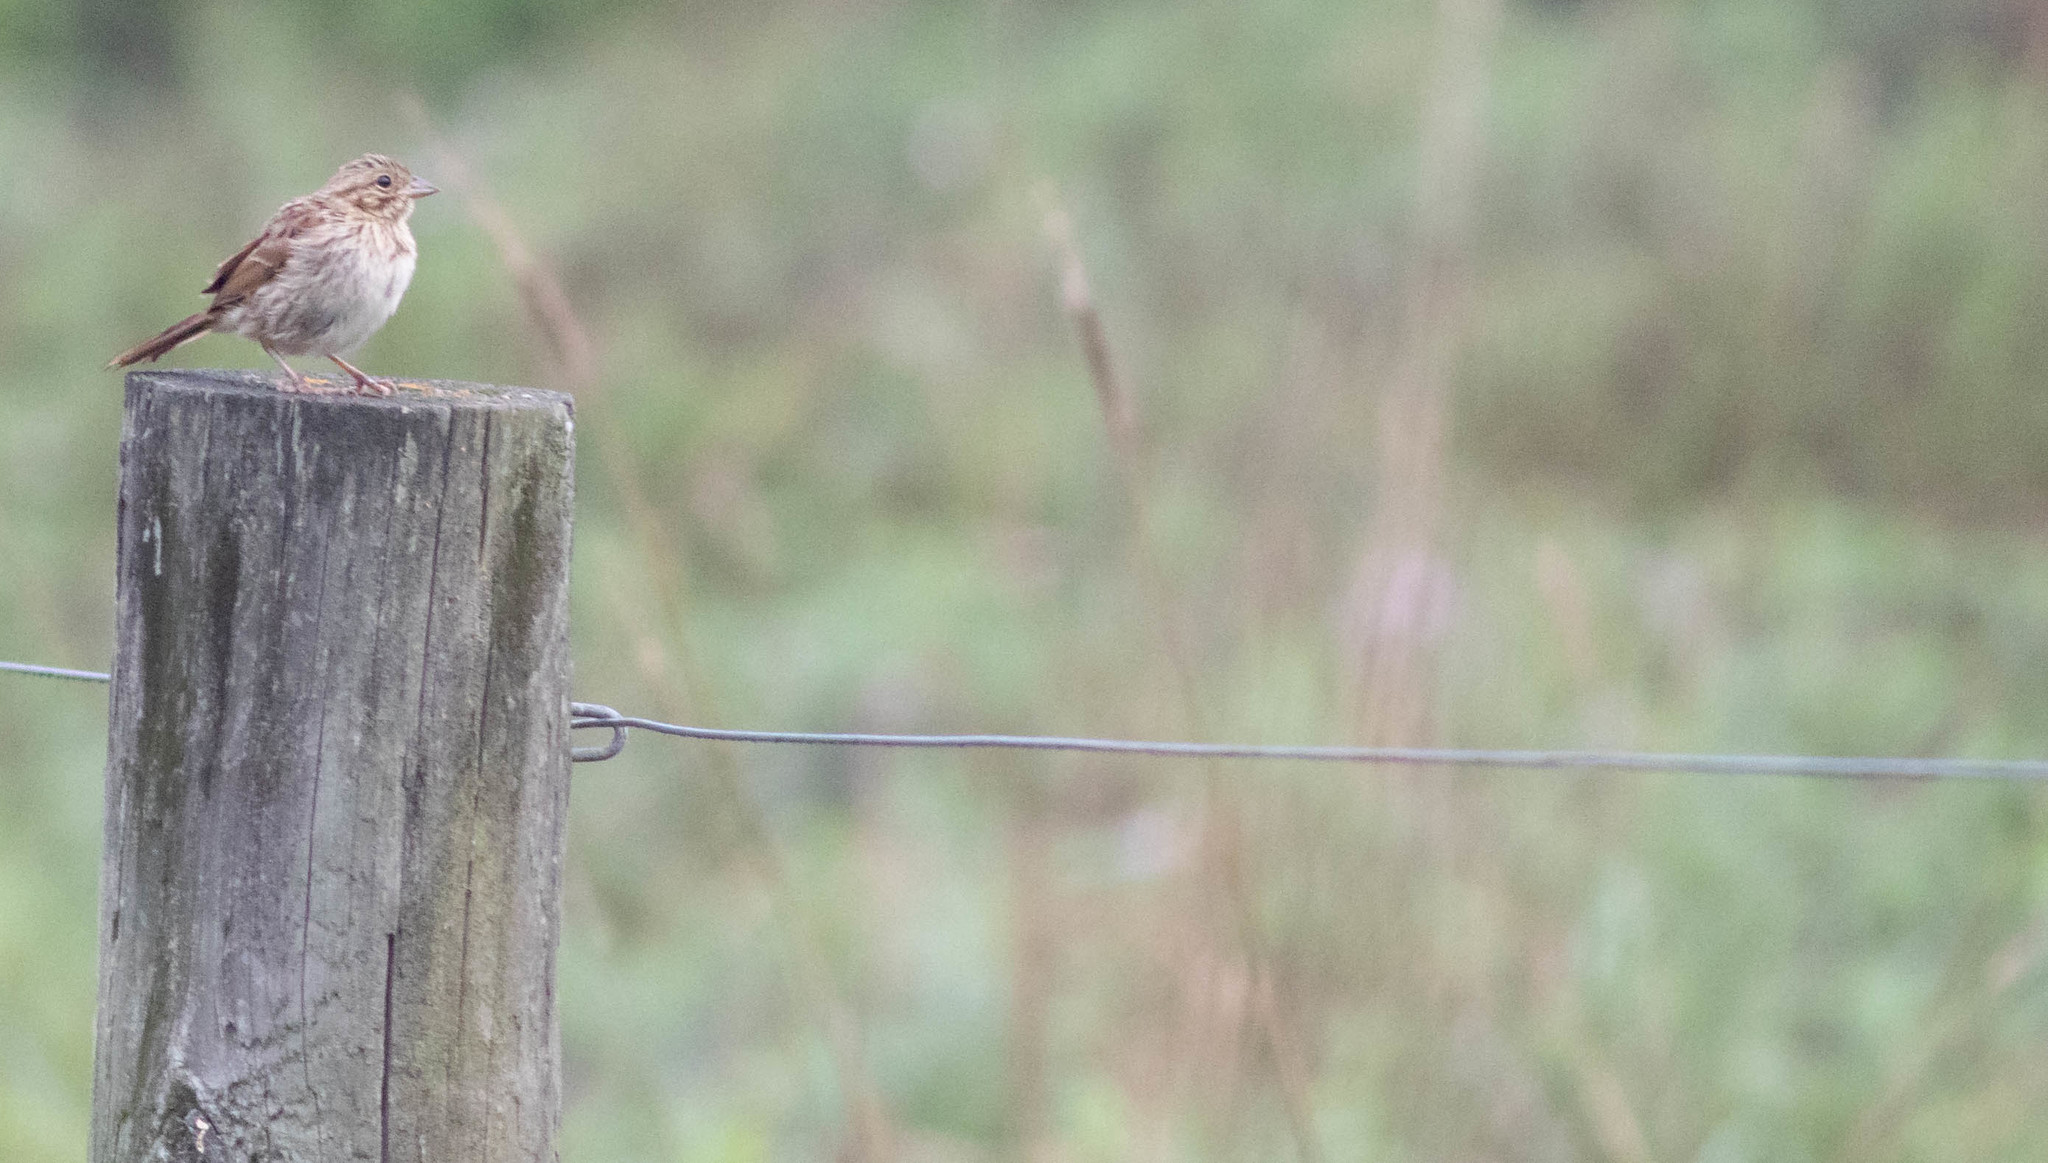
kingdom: Animalia
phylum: Chordata
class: Aves
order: Passeriformes
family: Passerellidae
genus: Melospiza
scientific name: Melospiza melodia
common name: Song sparrow
